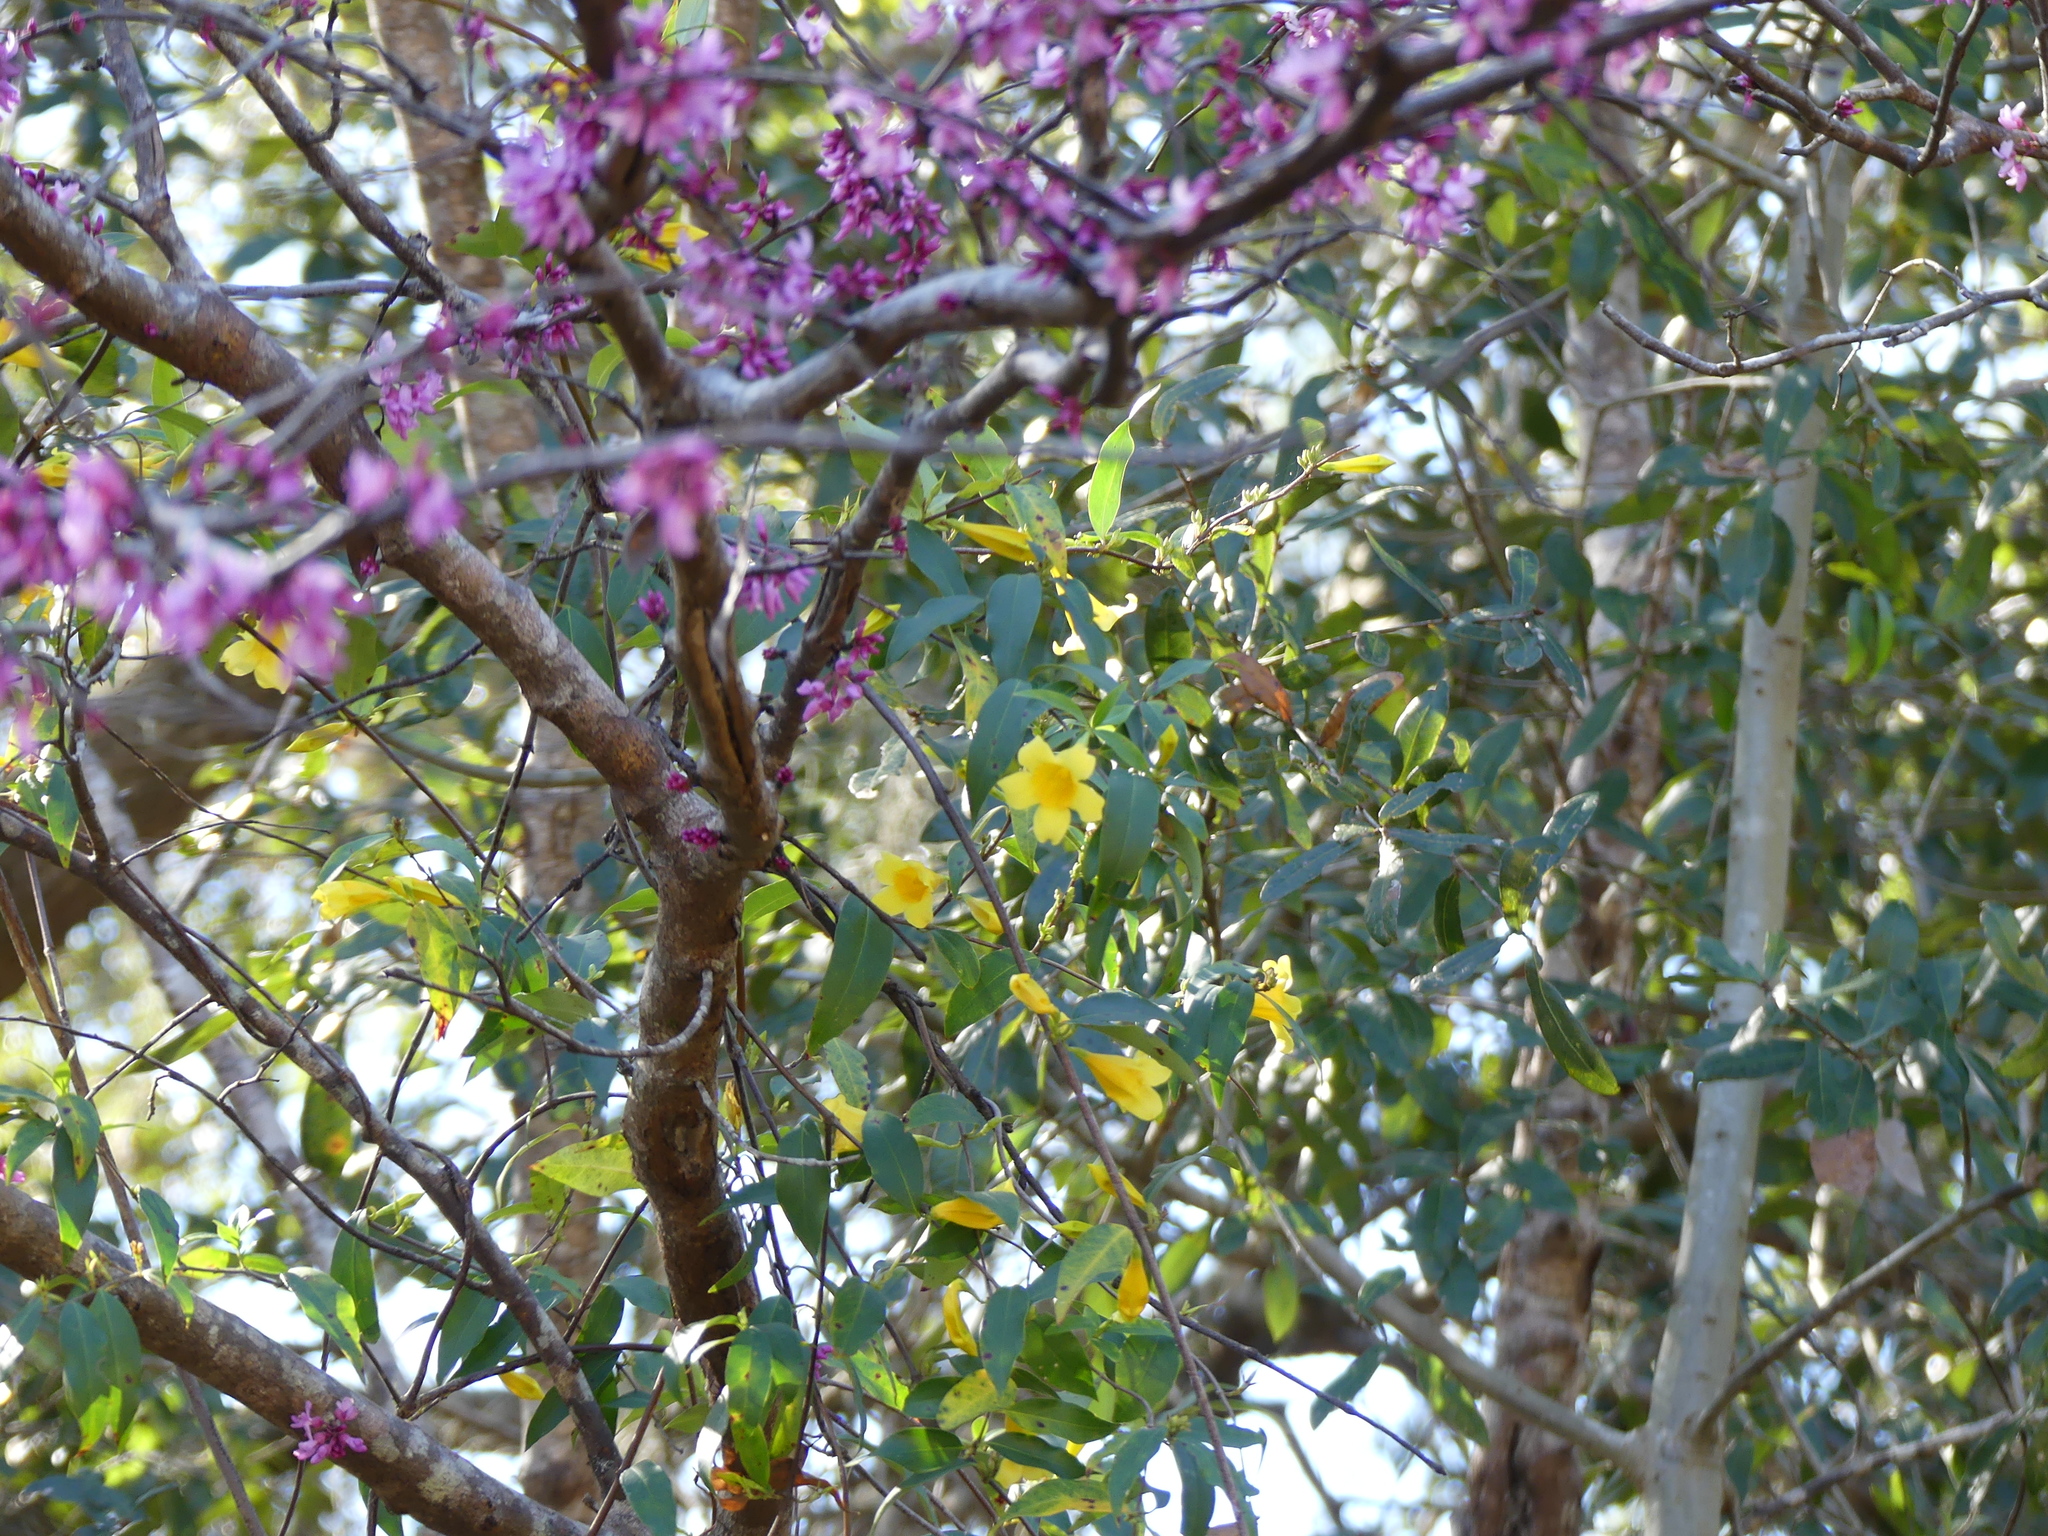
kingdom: Plantae
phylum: Tracheophyta
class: Magnoliopsida
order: Fabales
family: Fabaceae
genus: Cercis
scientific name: Cercis canadensis
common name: Eastern redbud
